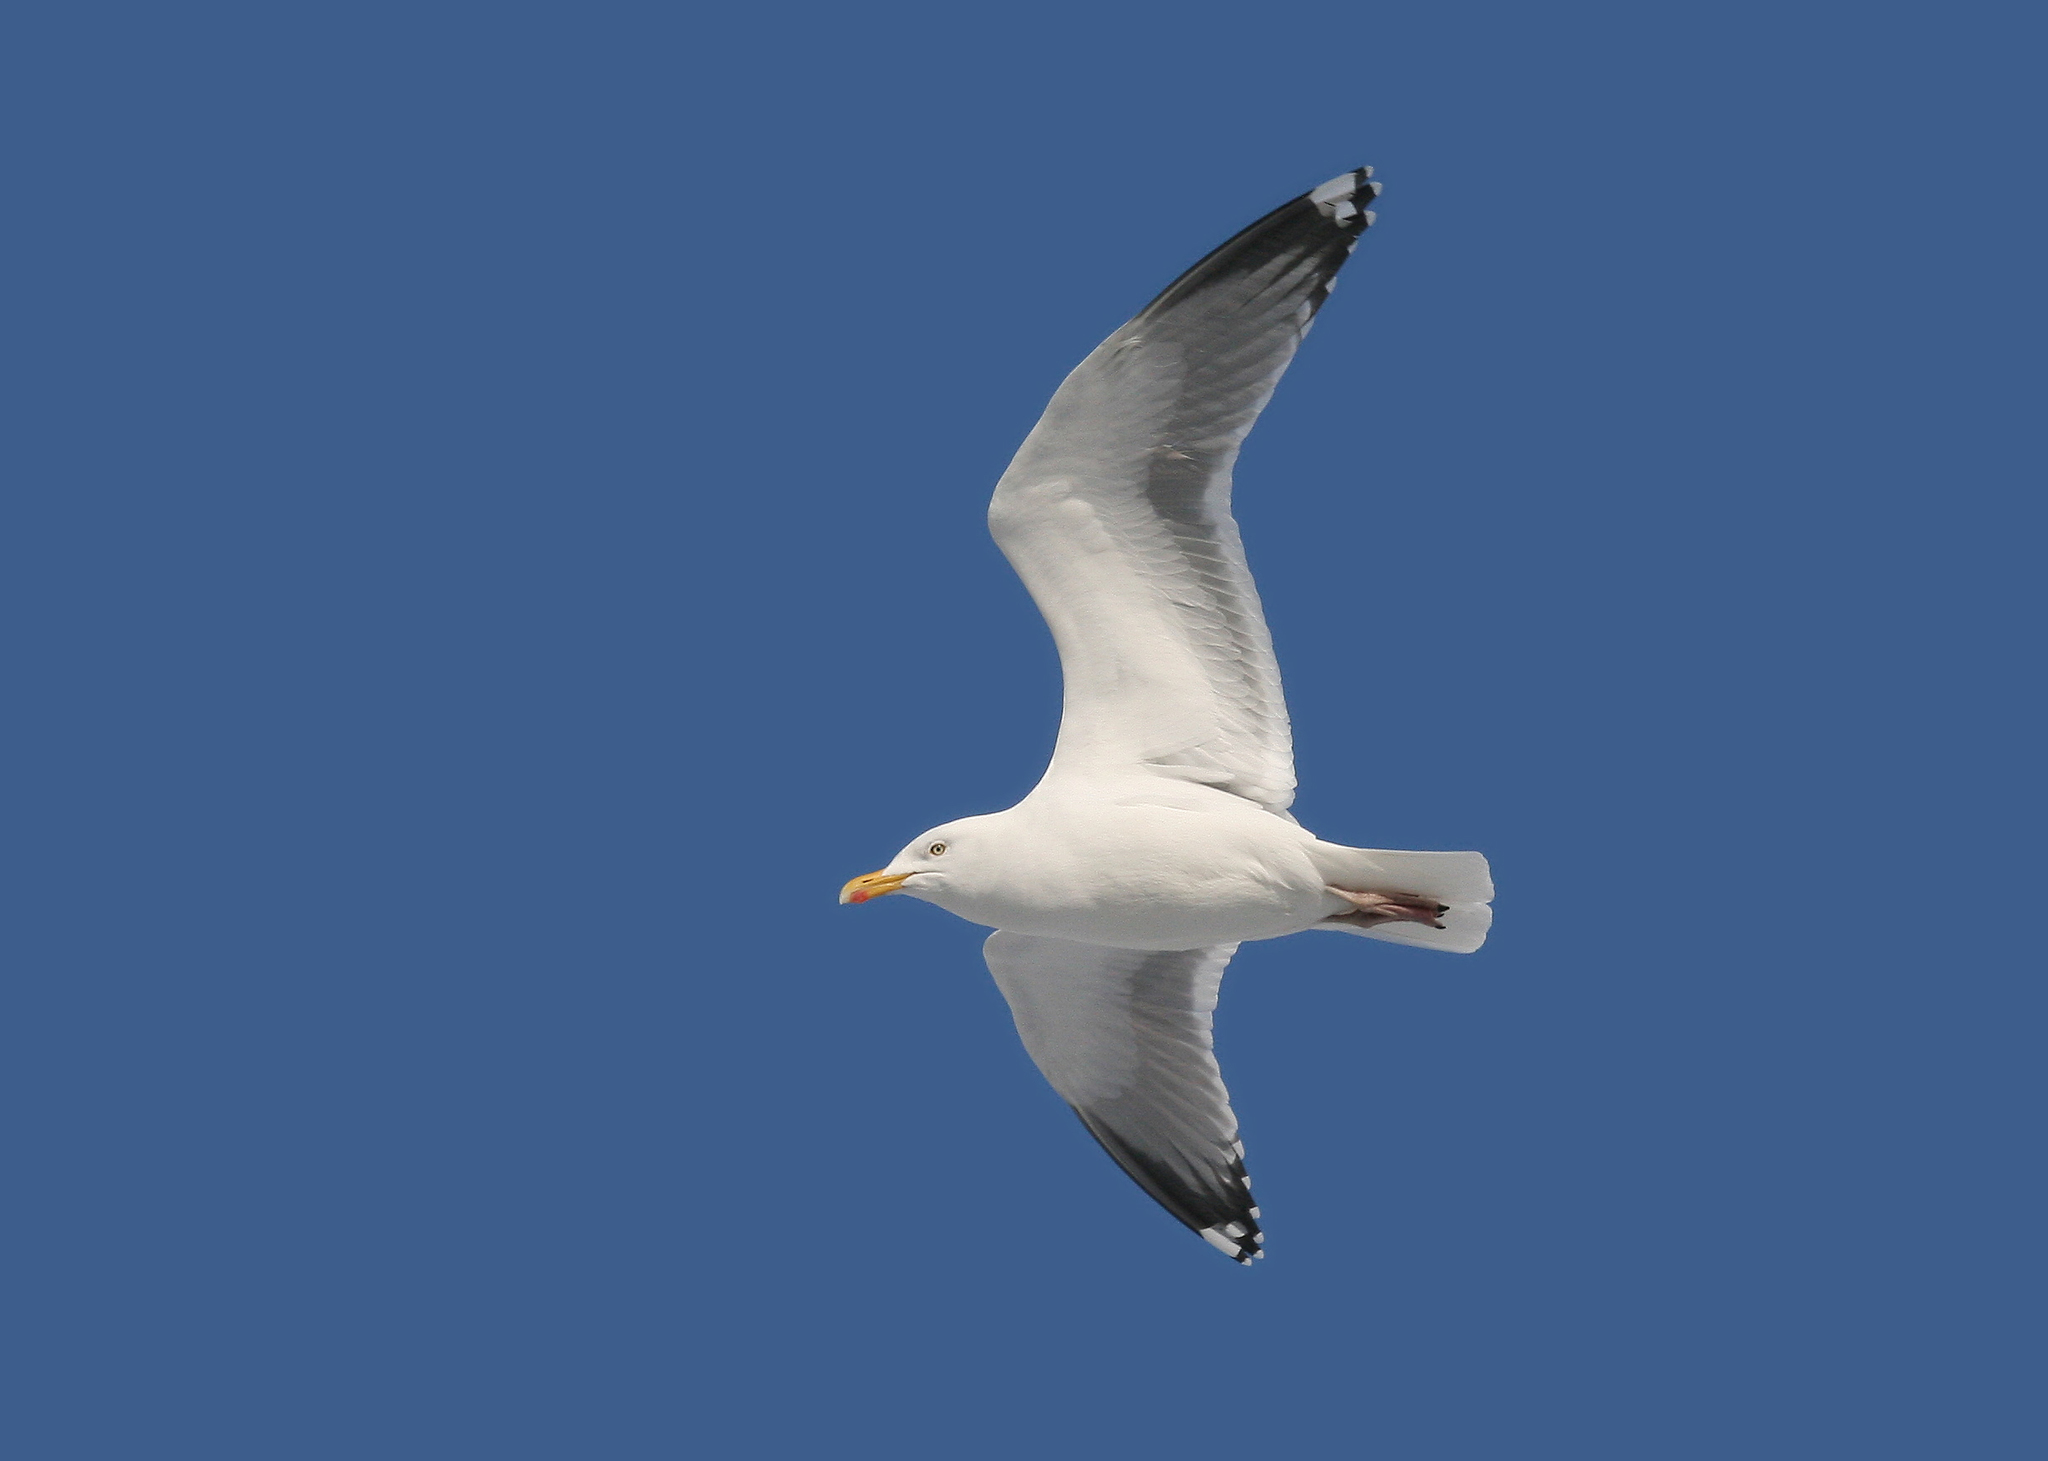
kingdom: Animalia
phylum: Chordata
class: Aves
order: Charadriiformes
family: Laridae
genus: Larus
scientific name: Larus argentatus
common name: Herring gull
